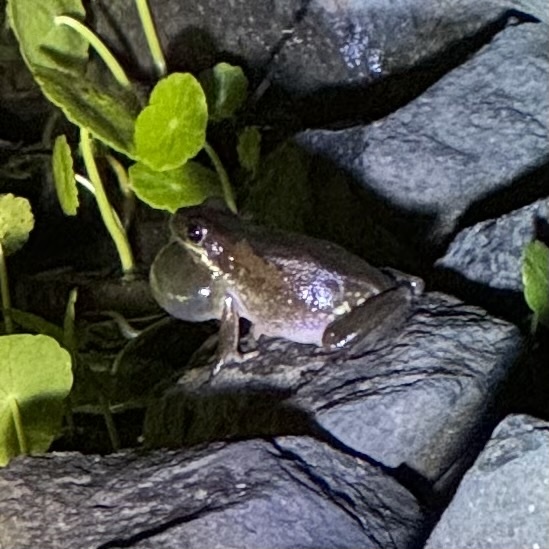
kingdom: Animalia
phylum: Chordata
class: Amphibia
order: Anura
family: Pelodryadidae
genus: Litoria
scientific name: Litoria dentata
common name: Bleating tree frog
